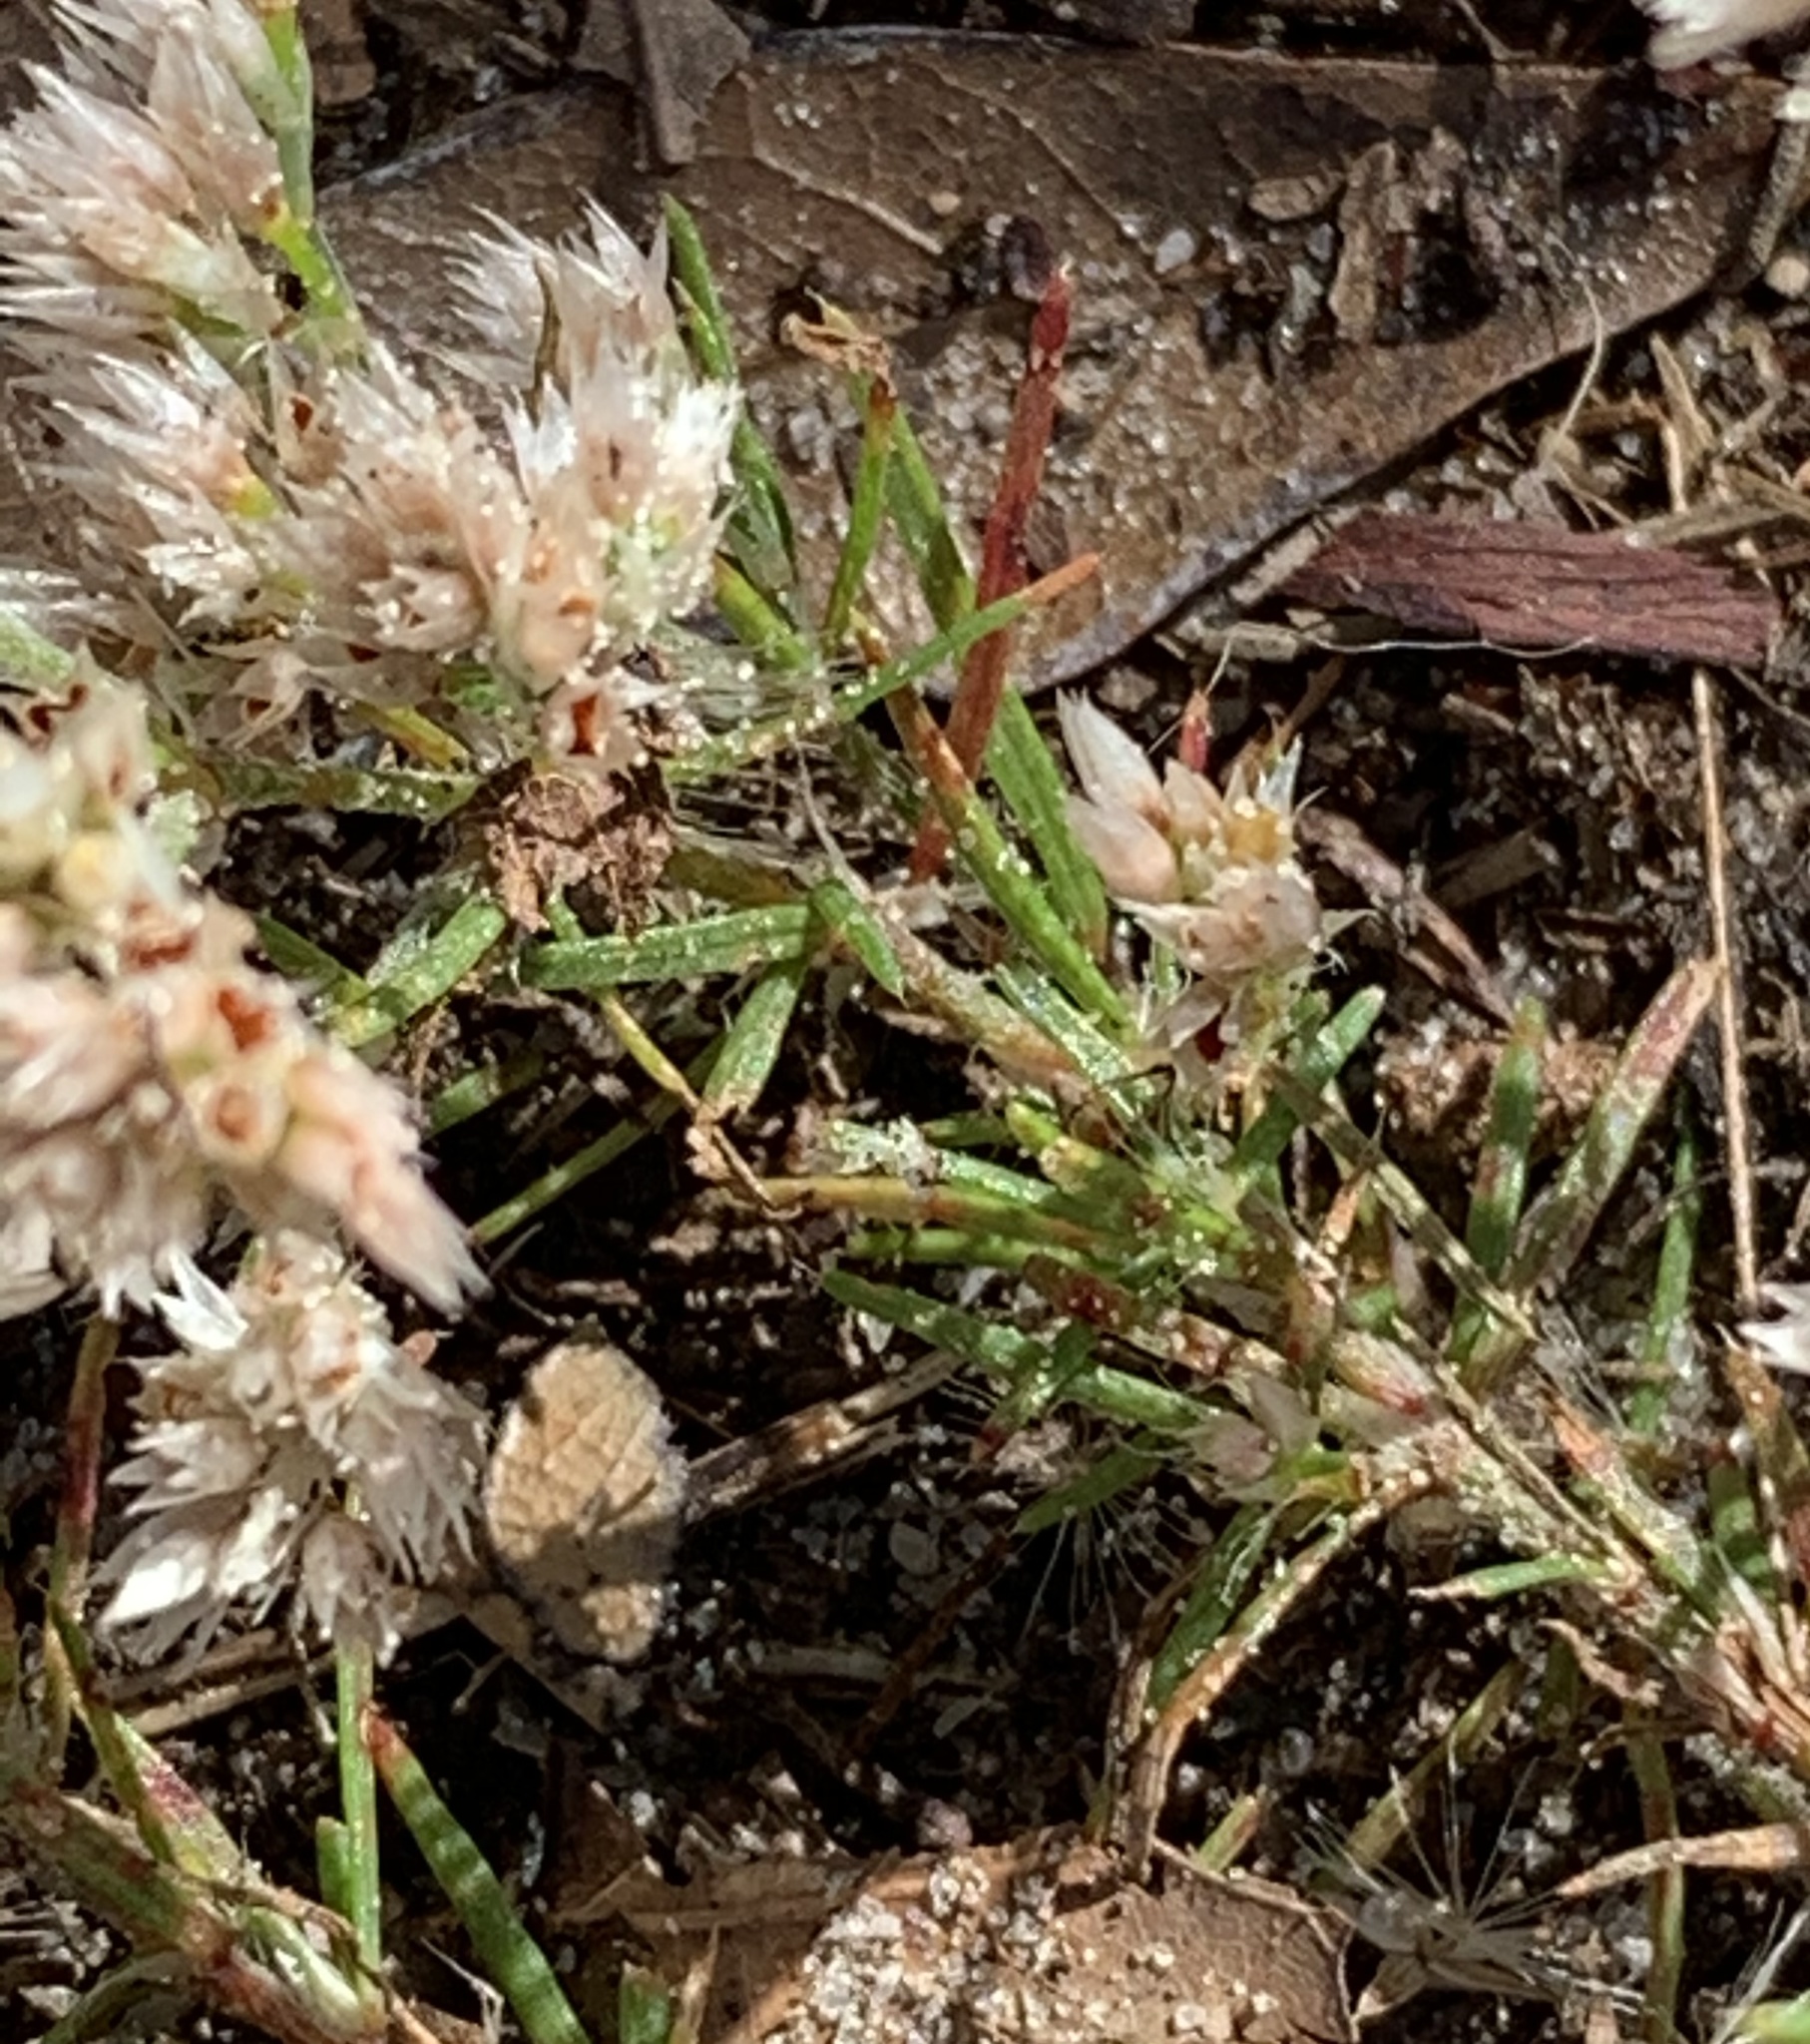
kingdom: Plantae
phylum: Tracheophyta
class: Magnoliopsida
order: Caryophyllales
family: Caryophyllaceae
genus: Polycarpaea
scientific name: Polycarpaea corymbosa
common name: Oldman's cap
